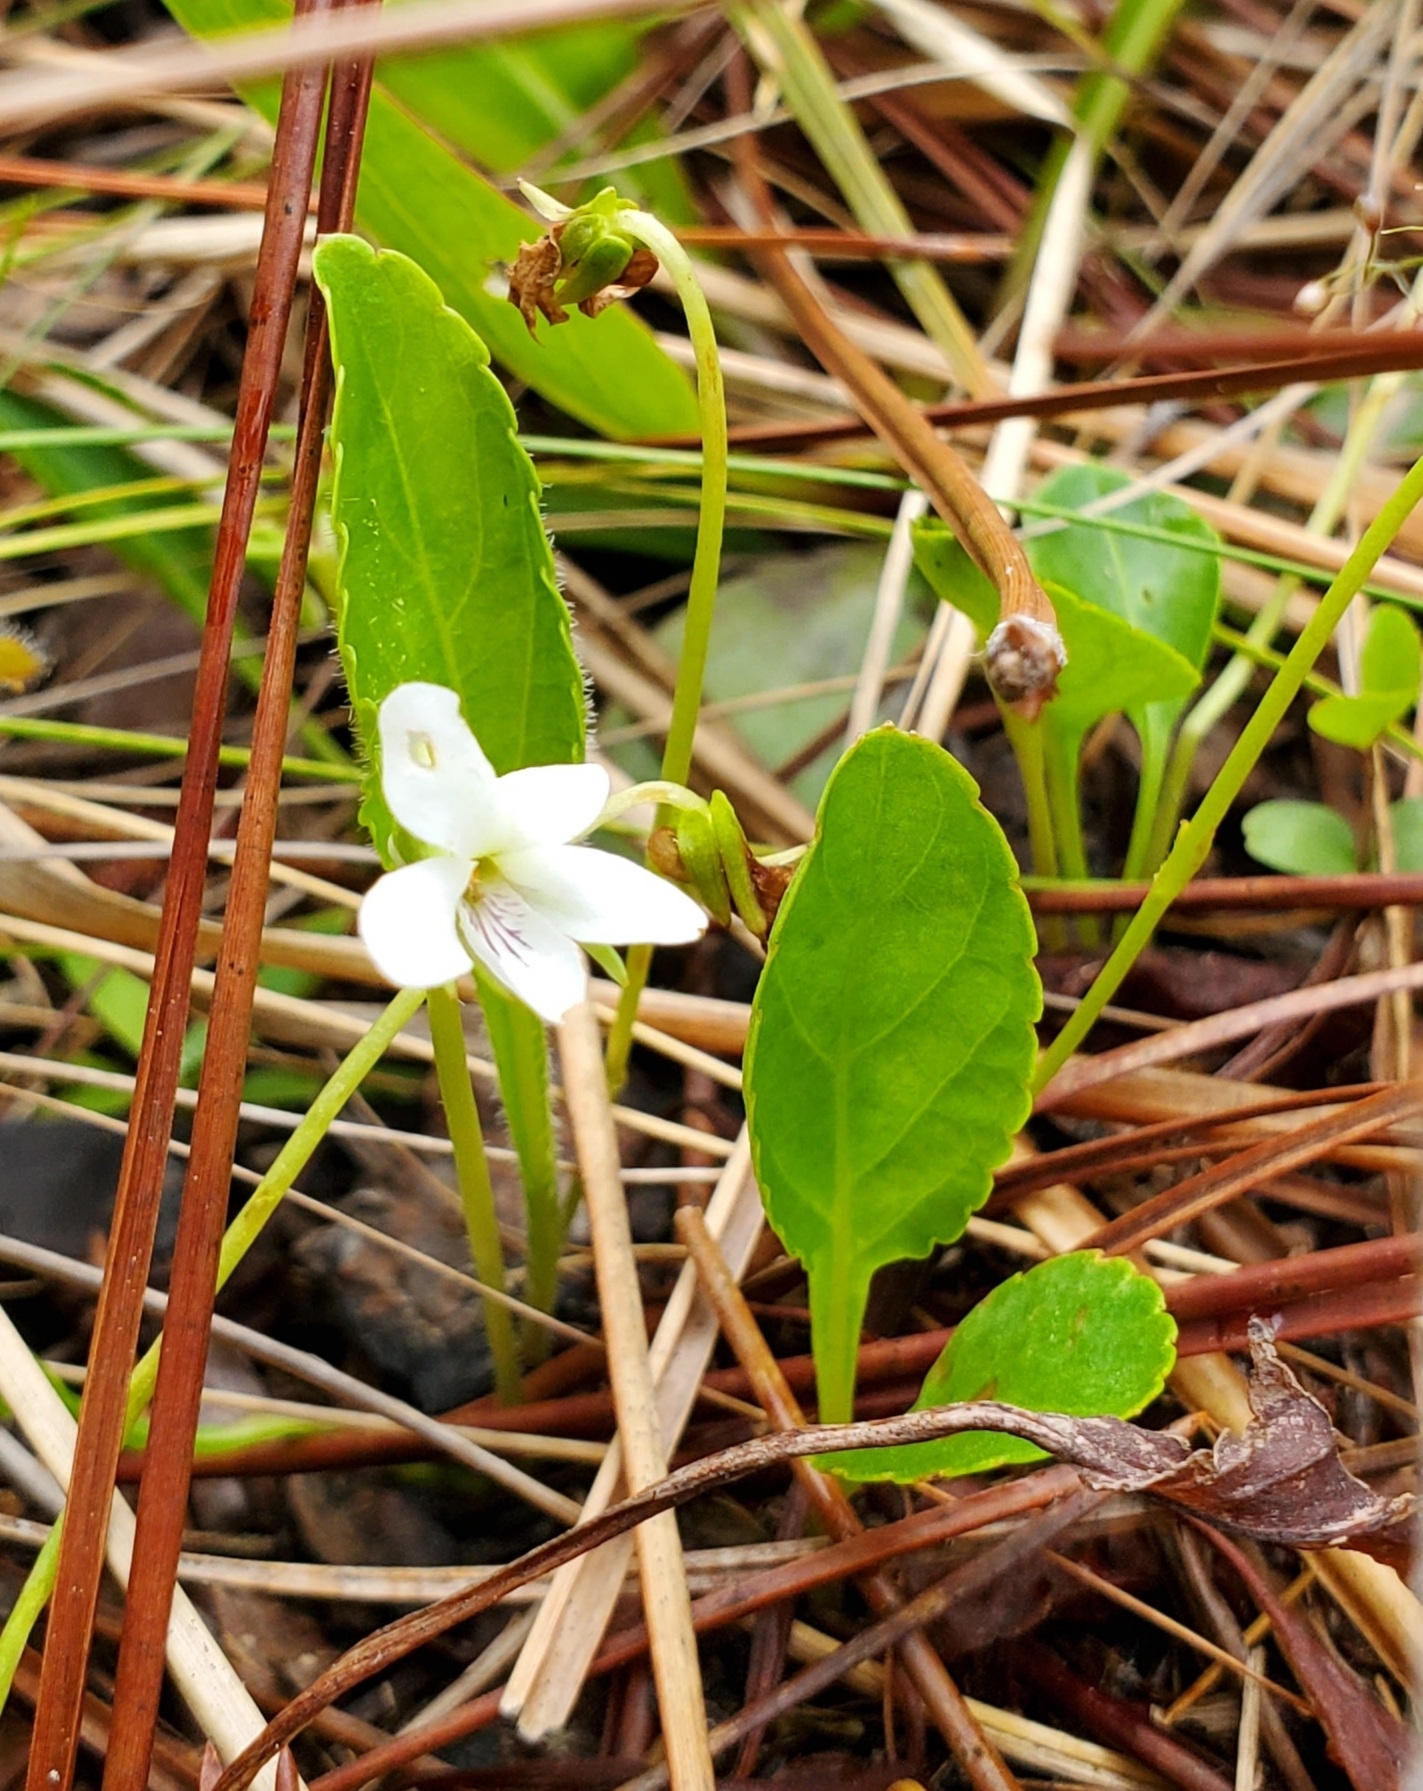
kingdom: Plantae
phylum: Tracheophyta
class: Magnoliopsida
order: Malpighiales
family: Violaceae
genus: Viola
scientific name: Viola primulifolia
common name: Primrose-leaf violet
